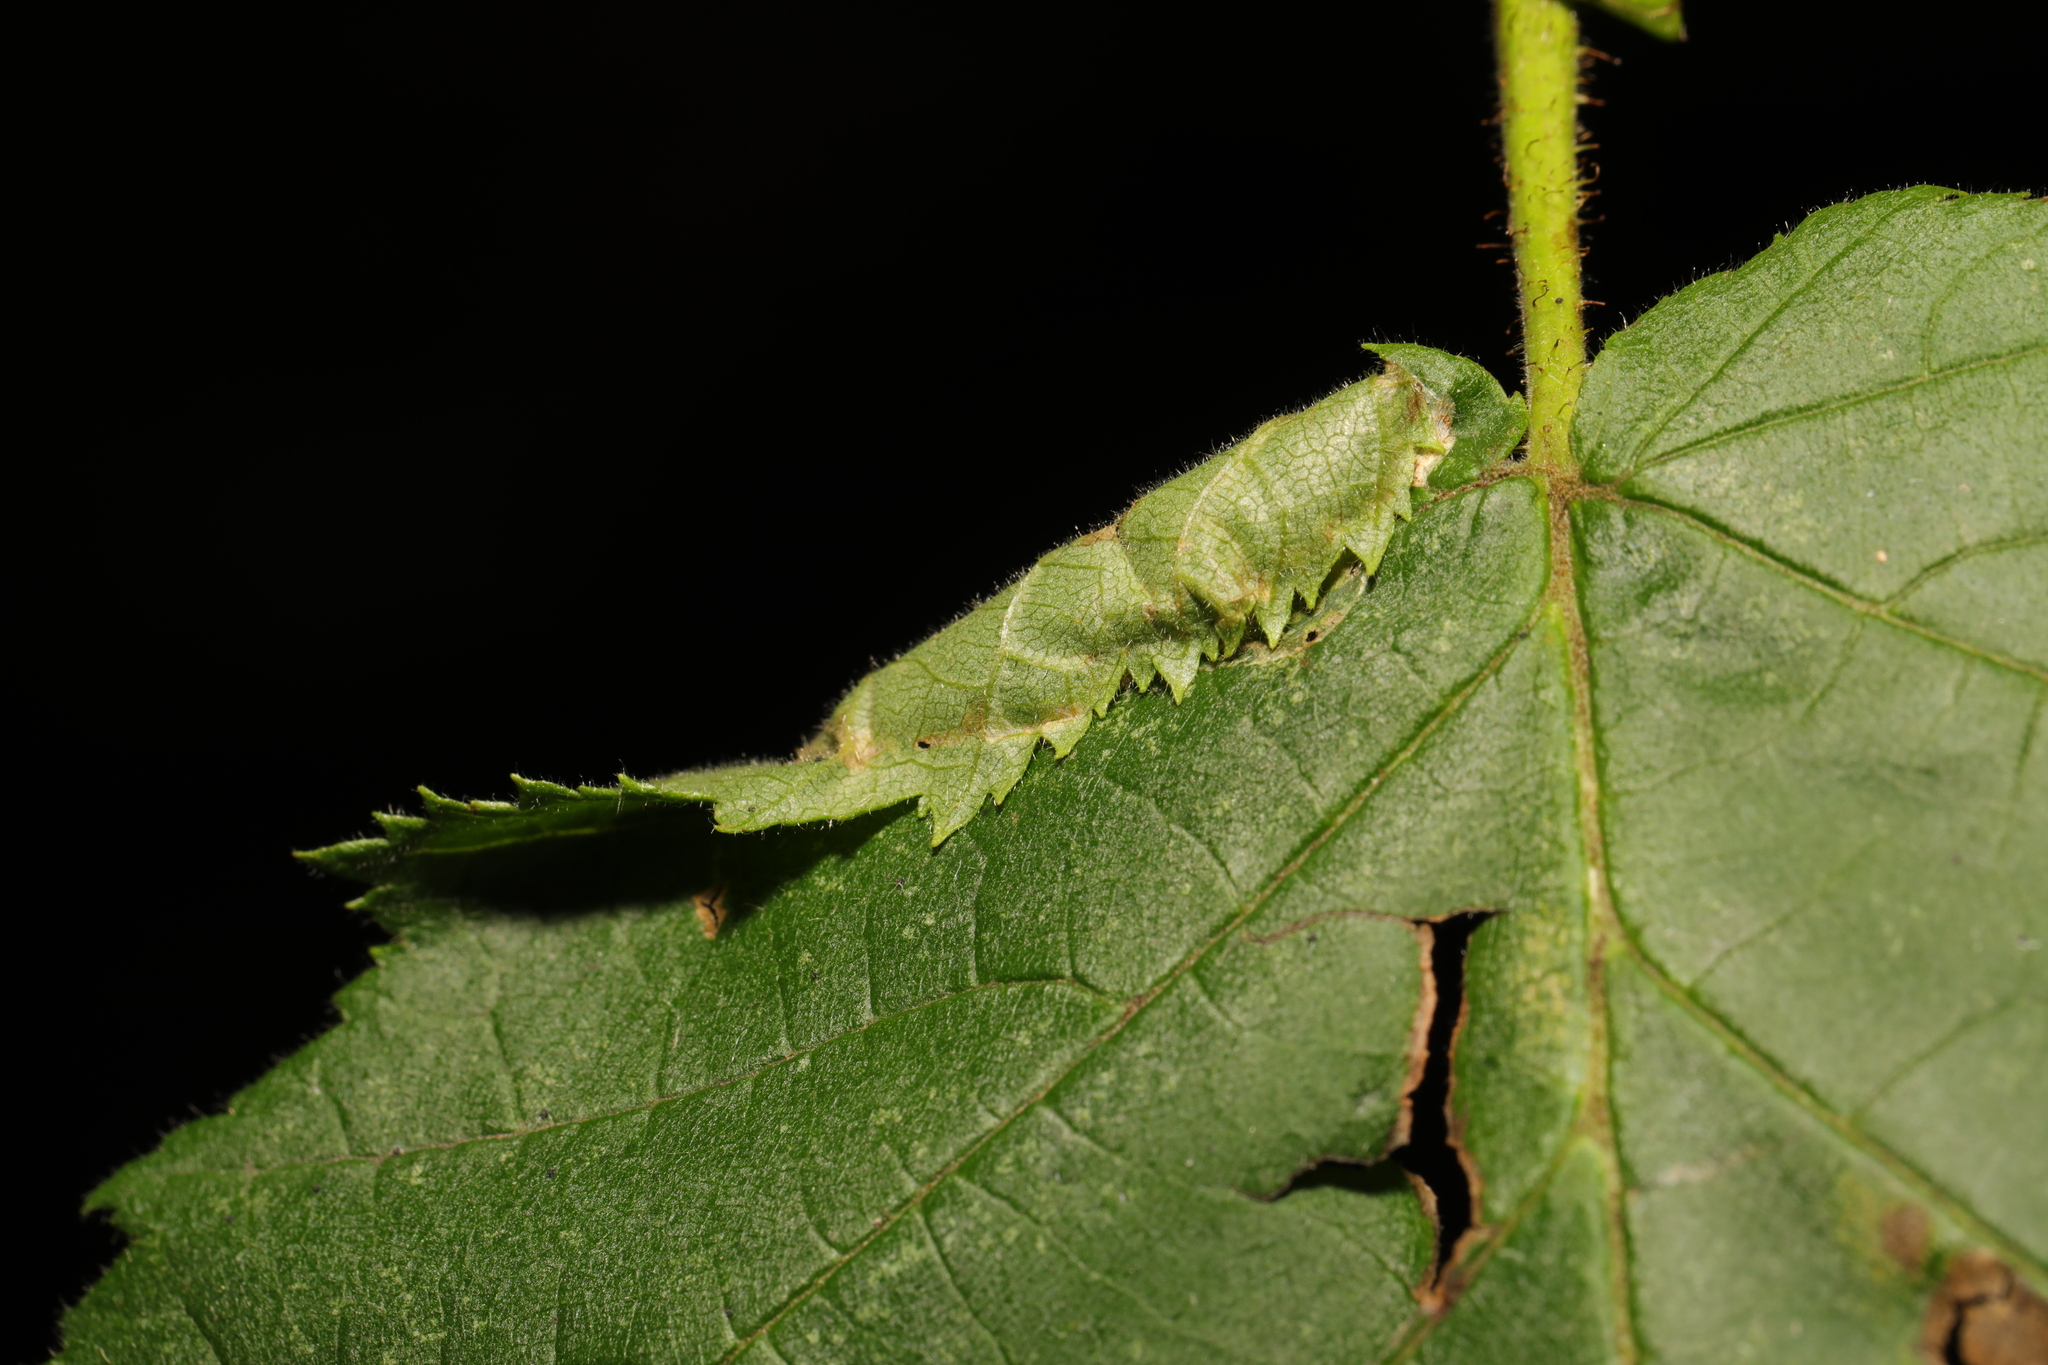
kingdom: Animalia
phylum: Arthropoda
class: Insecta
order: Lepidoptera
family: Gracillariidae
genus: Parornix
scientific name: Parornix devoniella
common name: Hazel slender
